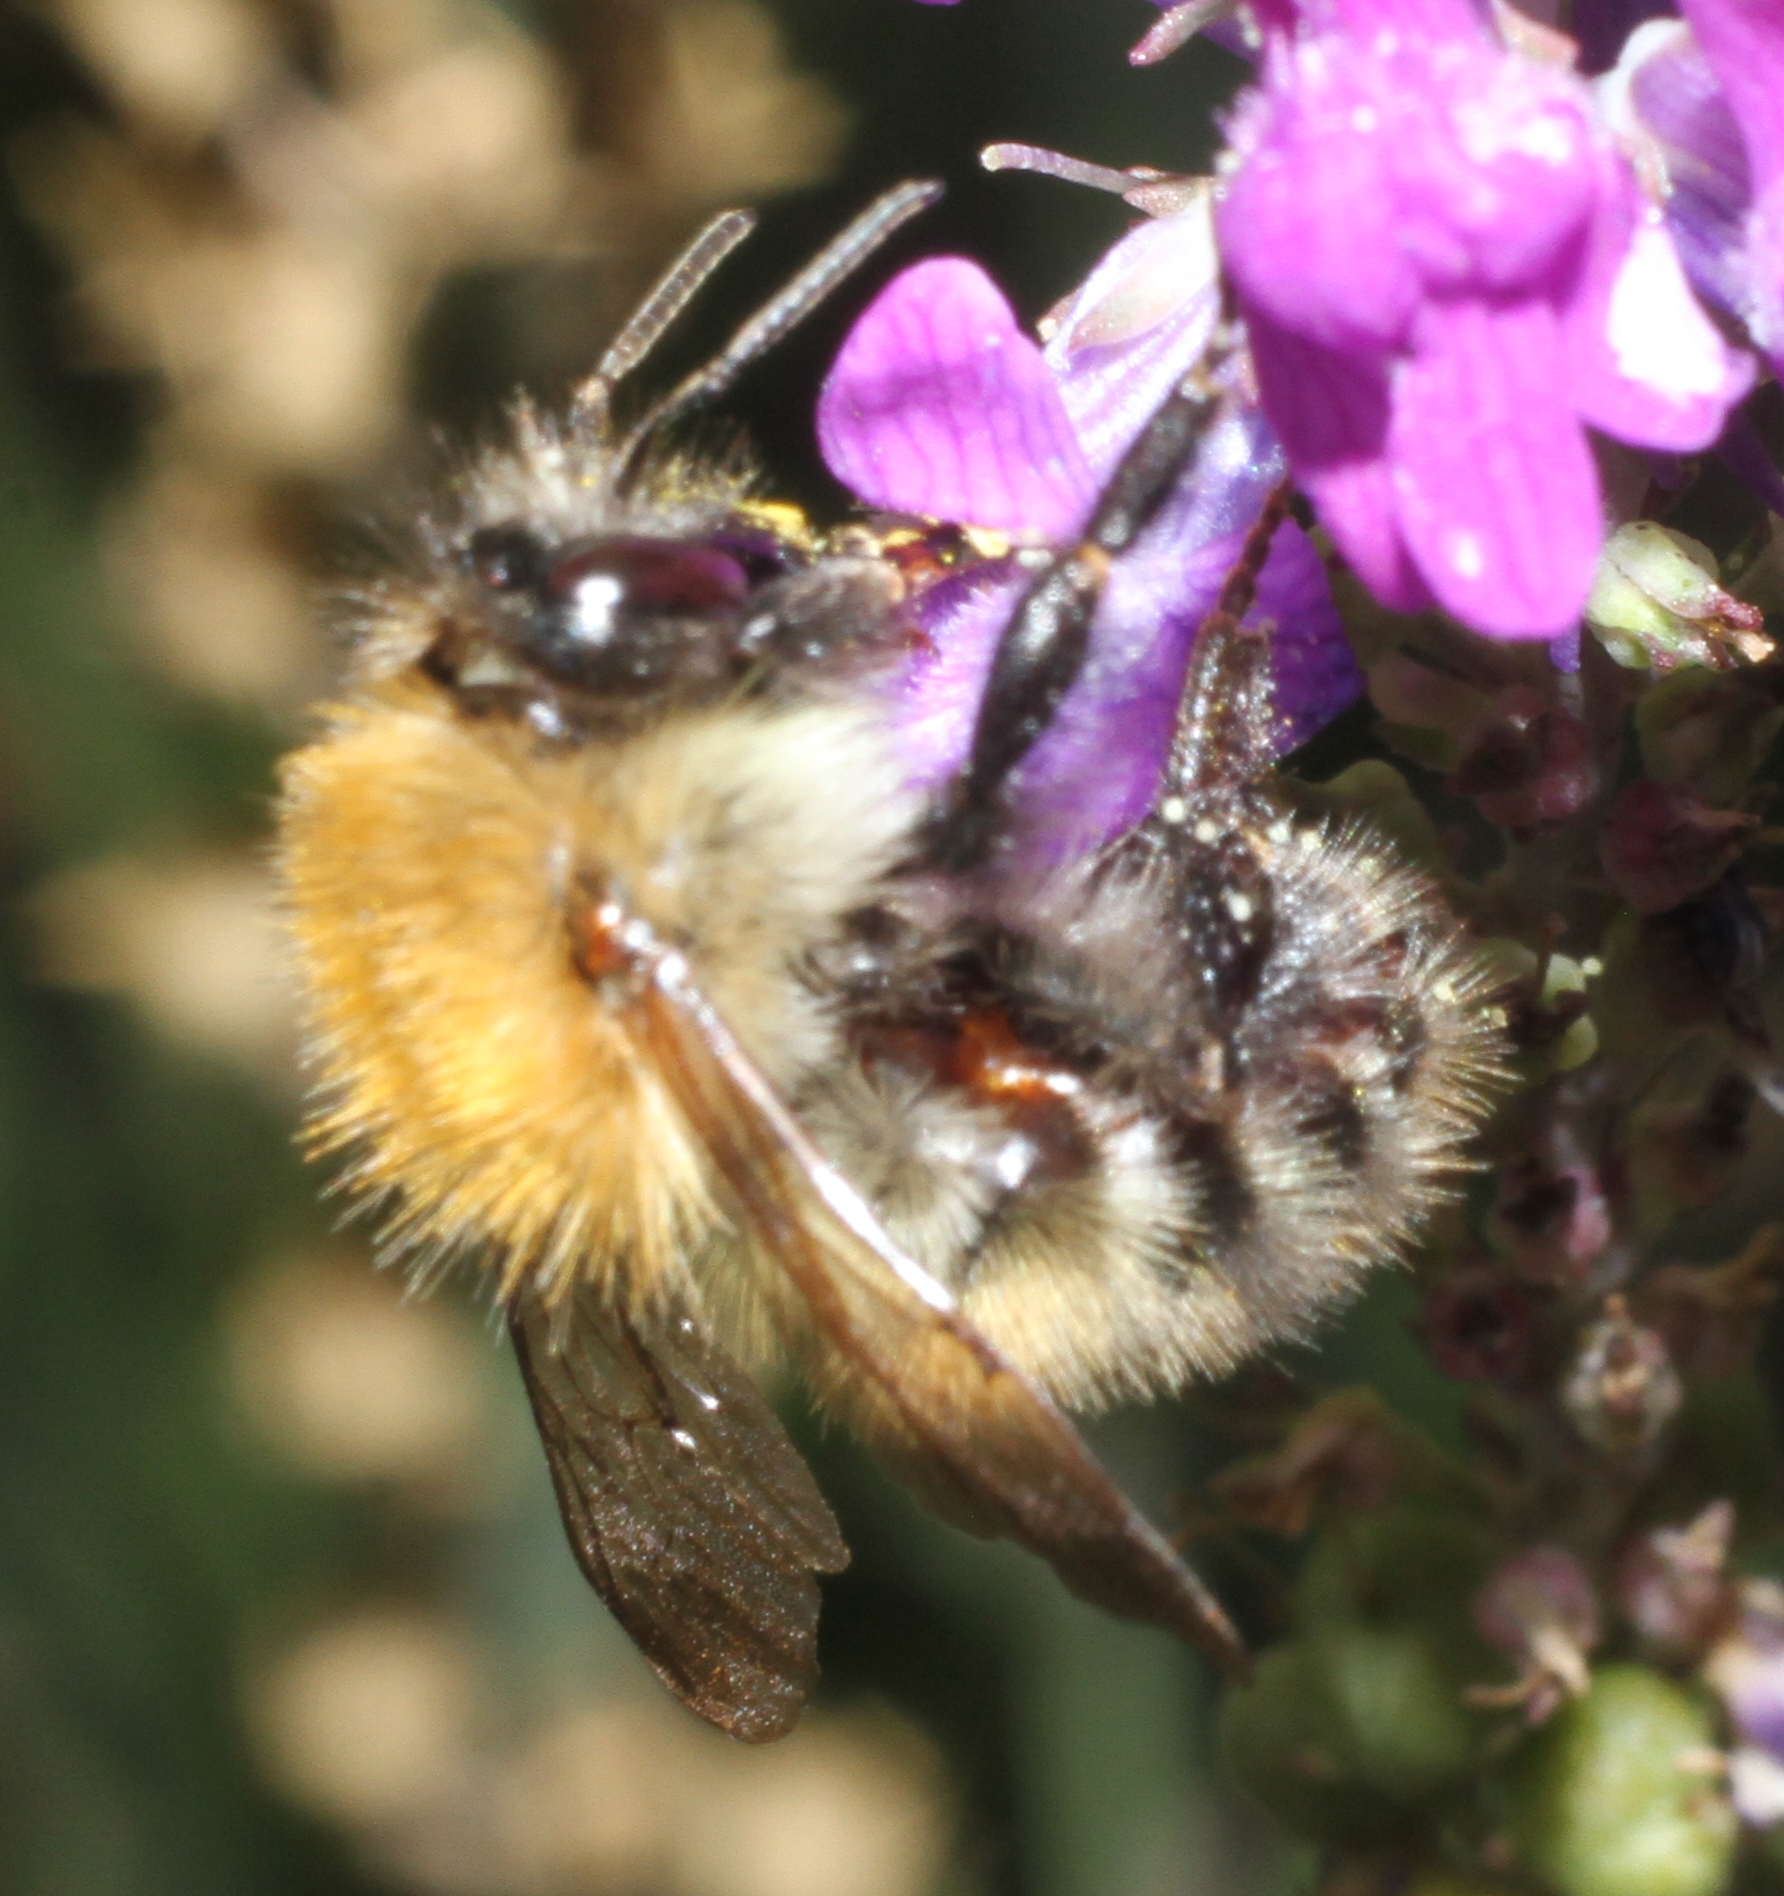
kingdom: Animalia
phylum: Arthropoda
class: Insecta
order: Hymenoptera
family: Apidae
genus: Bombus
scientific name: Bombus pascuorum
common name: Common carder bee
